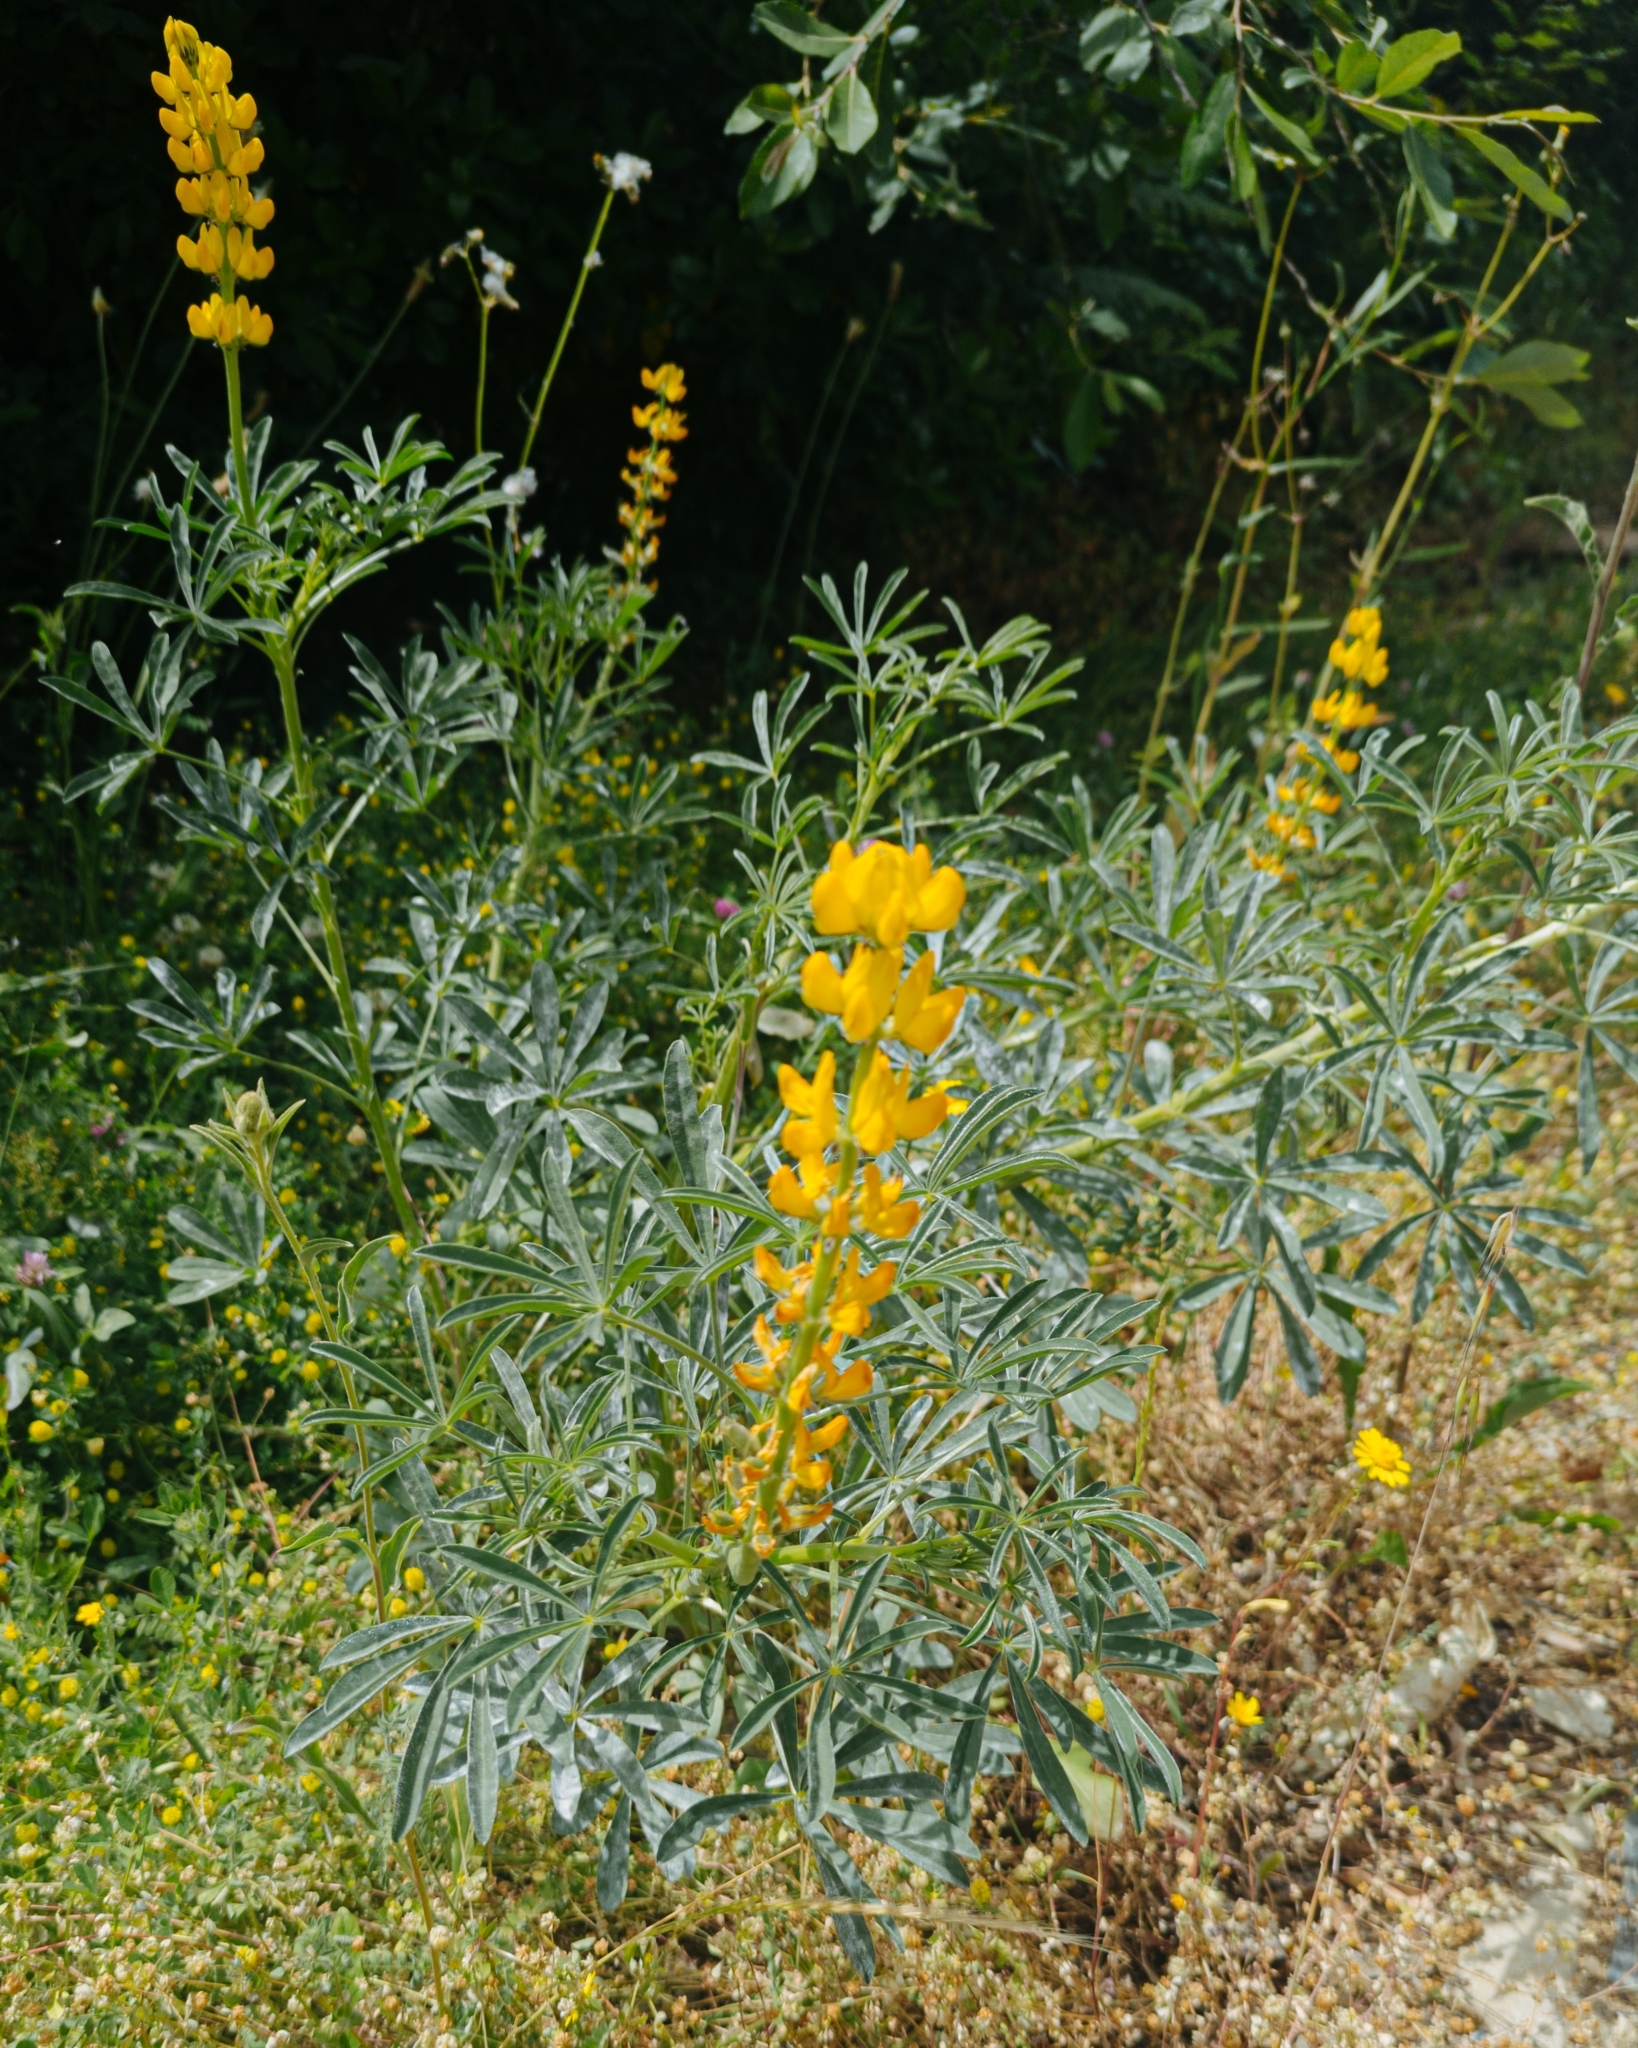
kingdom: Plantae
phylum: Tracheophyta
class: Magnoliopsida
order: Fabales
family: Fabaceae
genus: Lupinus
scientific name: Lupinus luteus
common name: European yellow lupine
